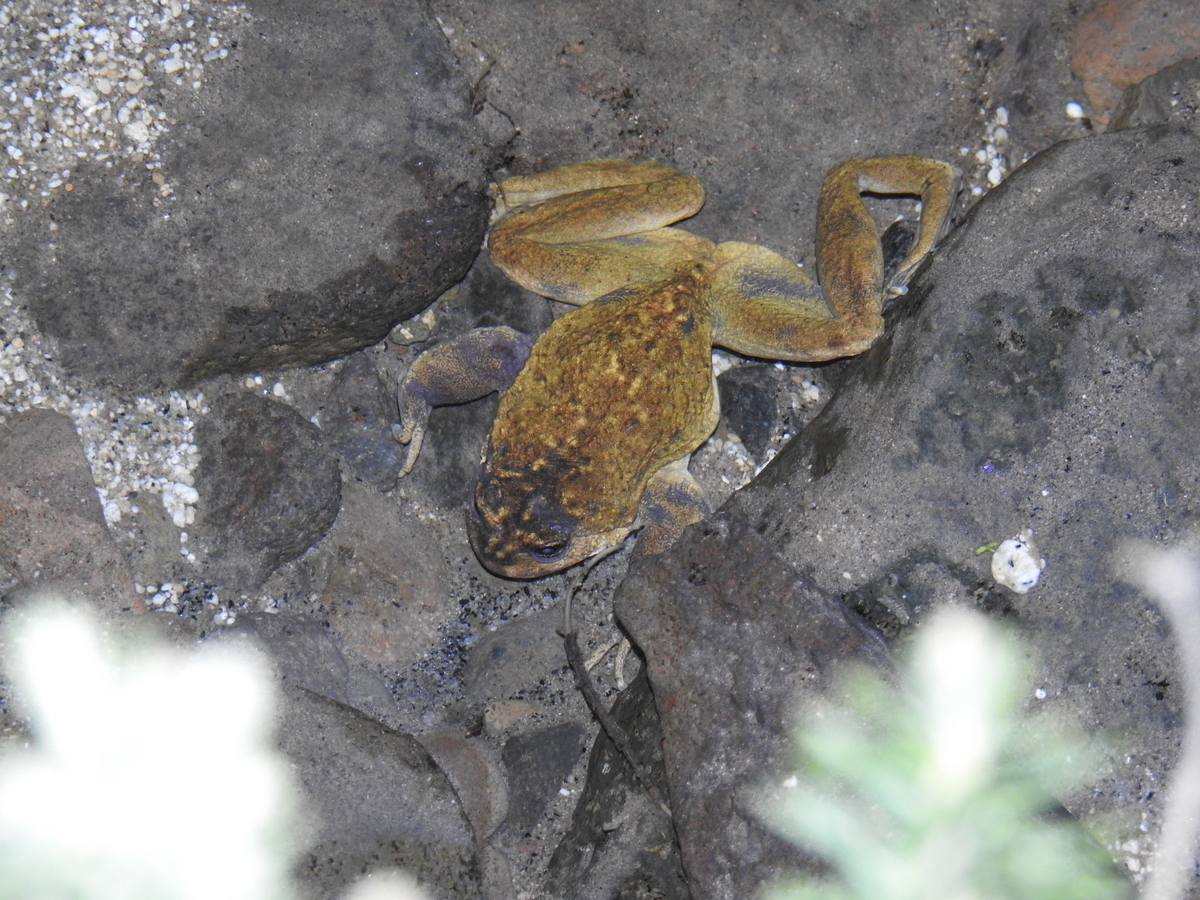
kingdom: Animalia
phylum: Chordata
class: Amphibia
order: Anura
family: Alsodidae
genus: Alsodes
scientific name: Alsodes pehuenche
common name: Pehuenche spiny-chest frog
